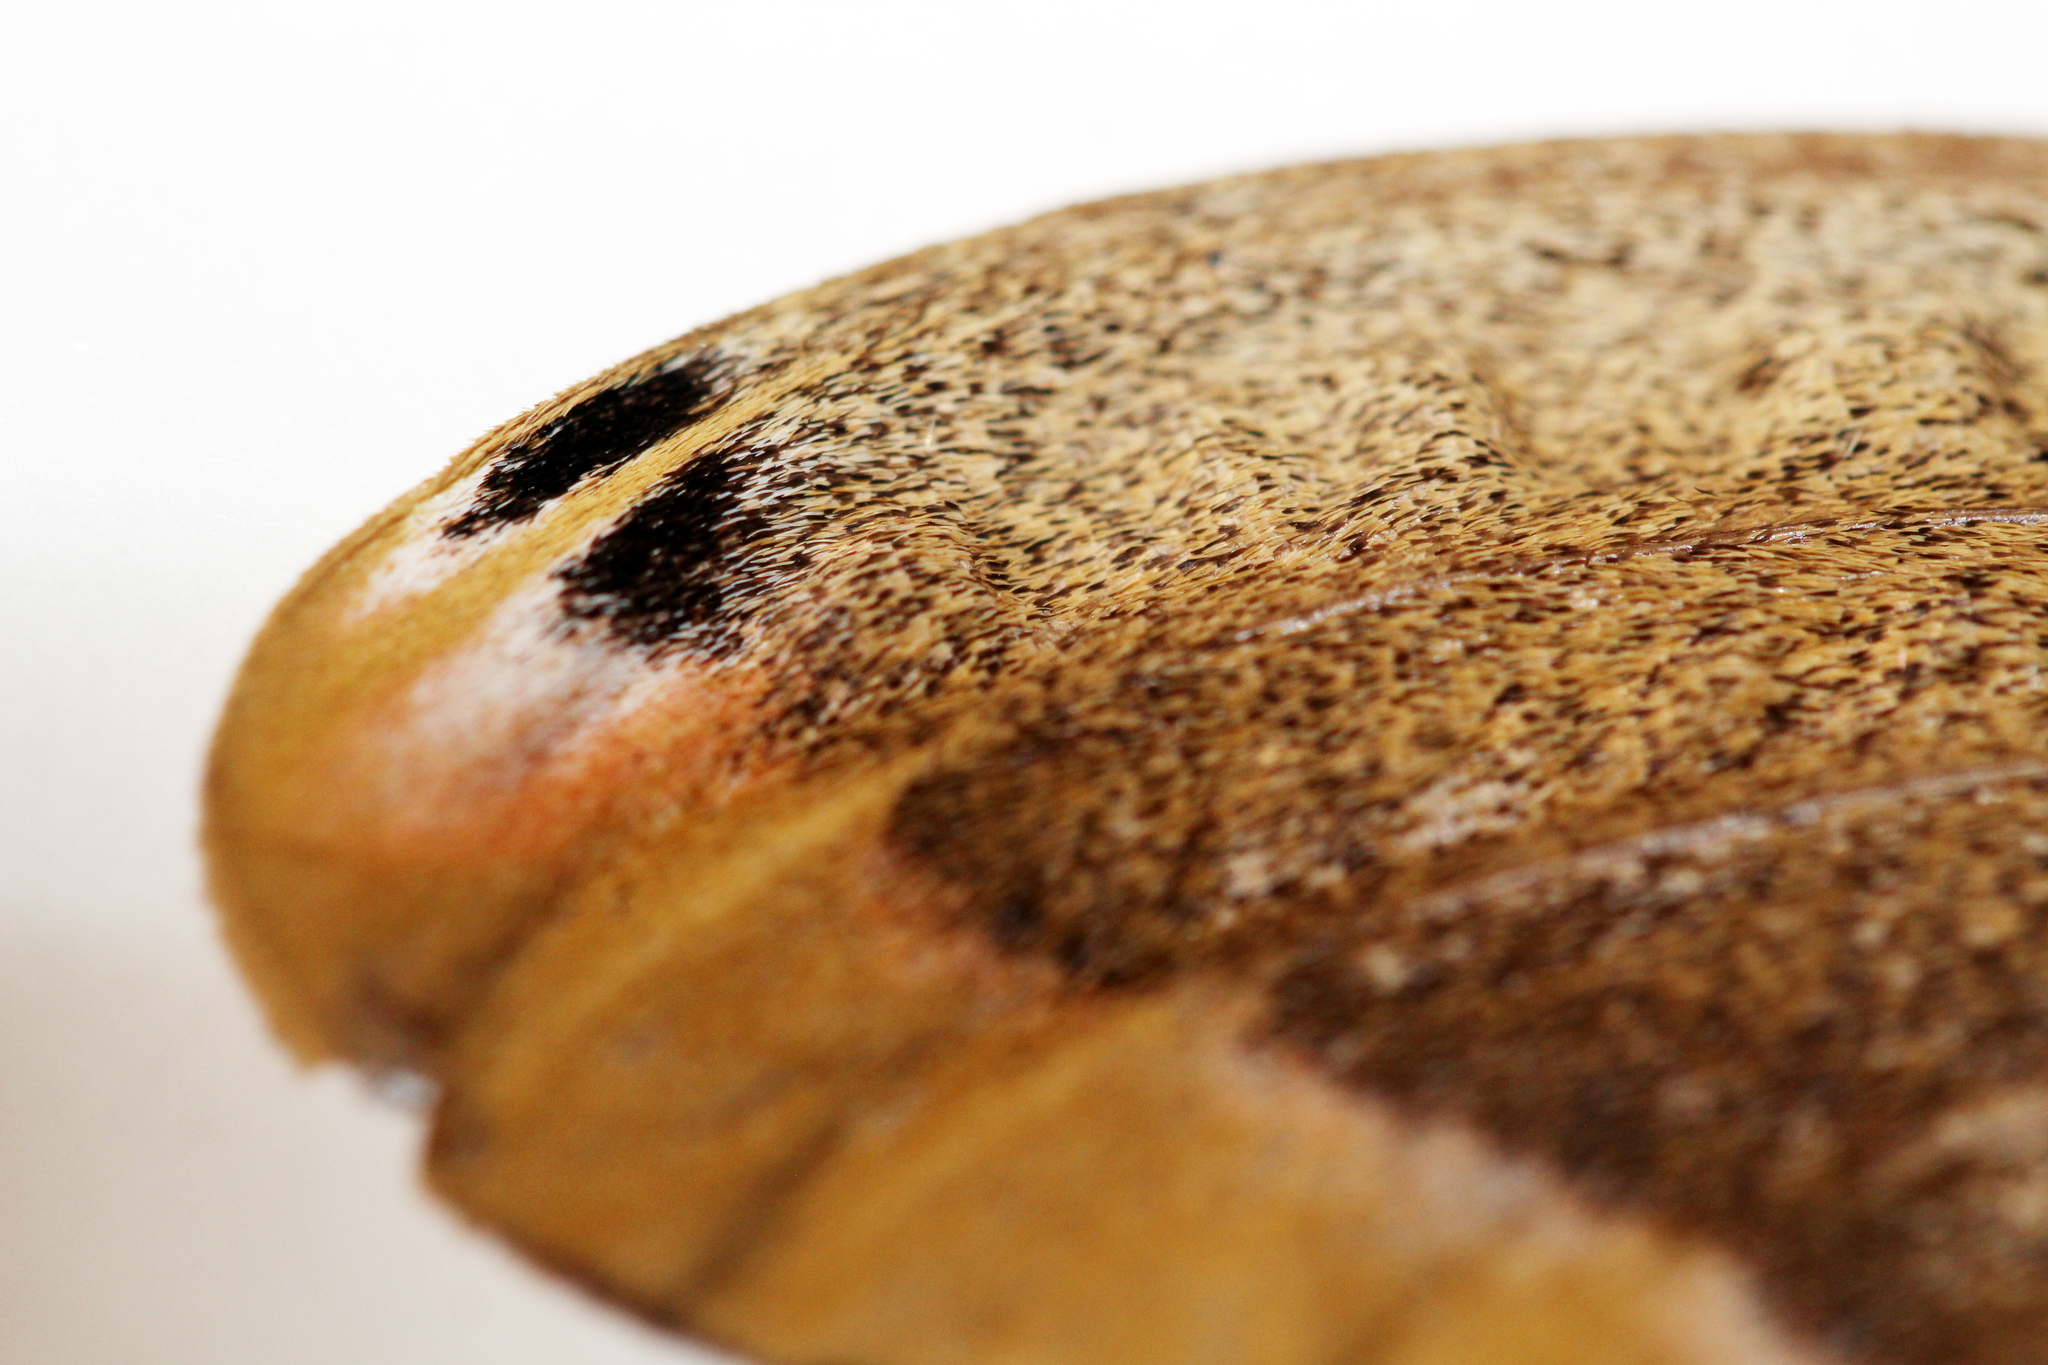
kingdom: Animalia
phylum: Arthropoda
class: Insecta
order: Lepidoptera
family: Saturniidae
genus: Antheraea
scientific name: Antheraea polyphemus
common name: Polyphemus moth
